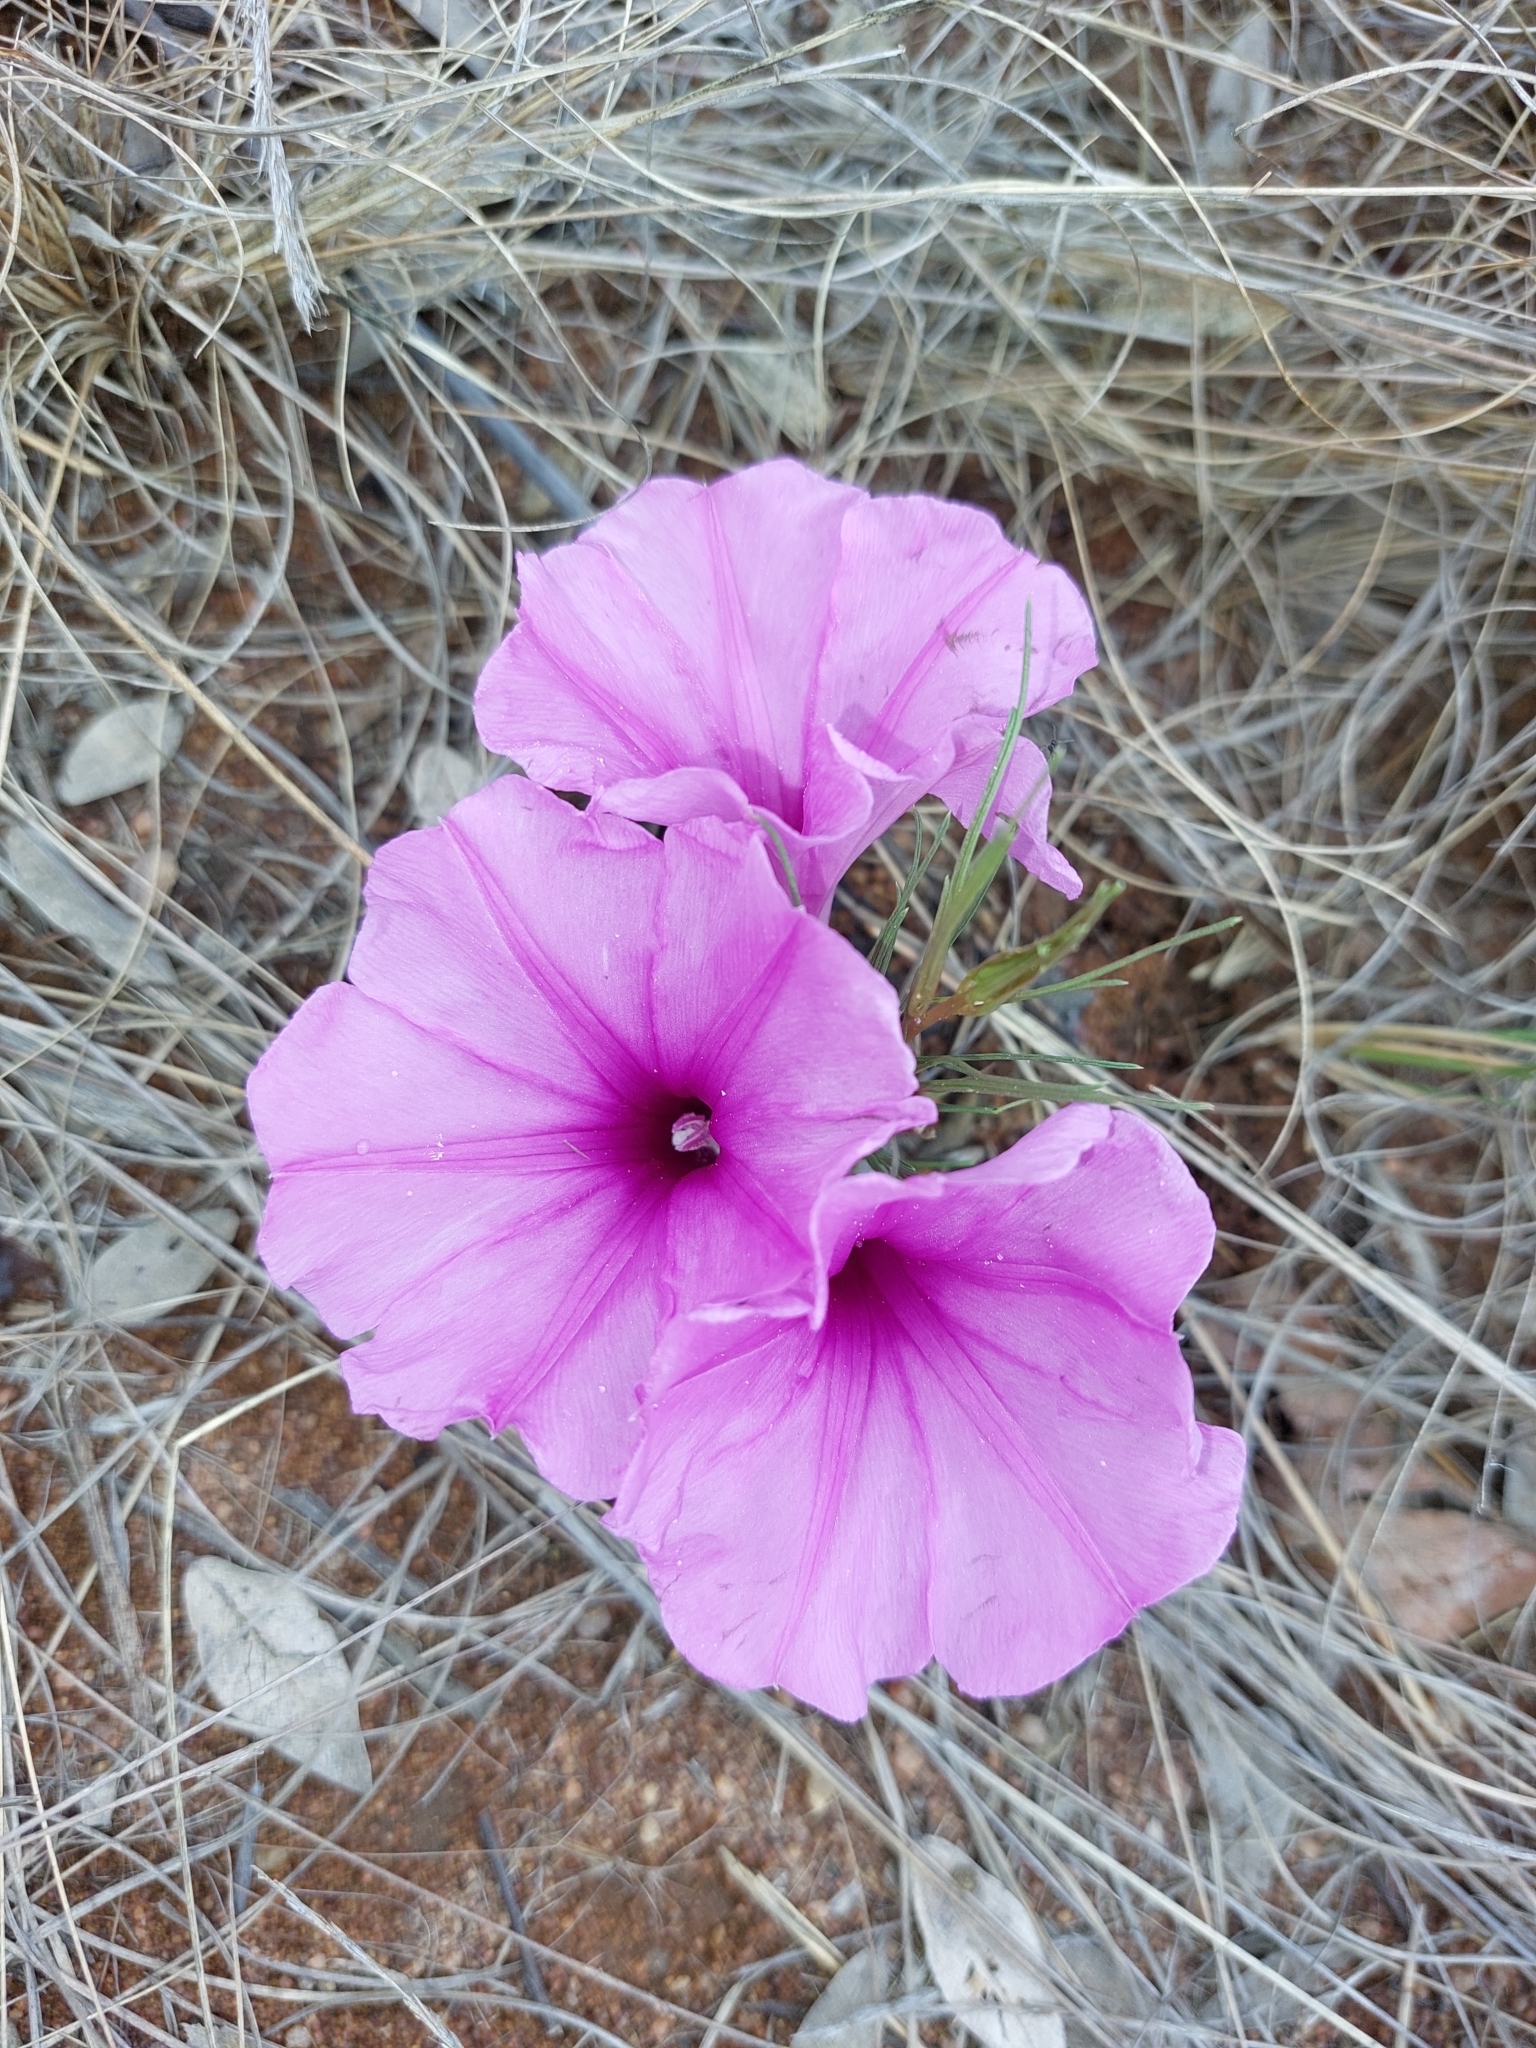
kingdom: Plantae
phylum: Tracheophyta
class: Magnoliopsida
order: Solanales
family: Convolvulaceae
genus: Ipomoea
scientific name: Ipomoea bolusiana
